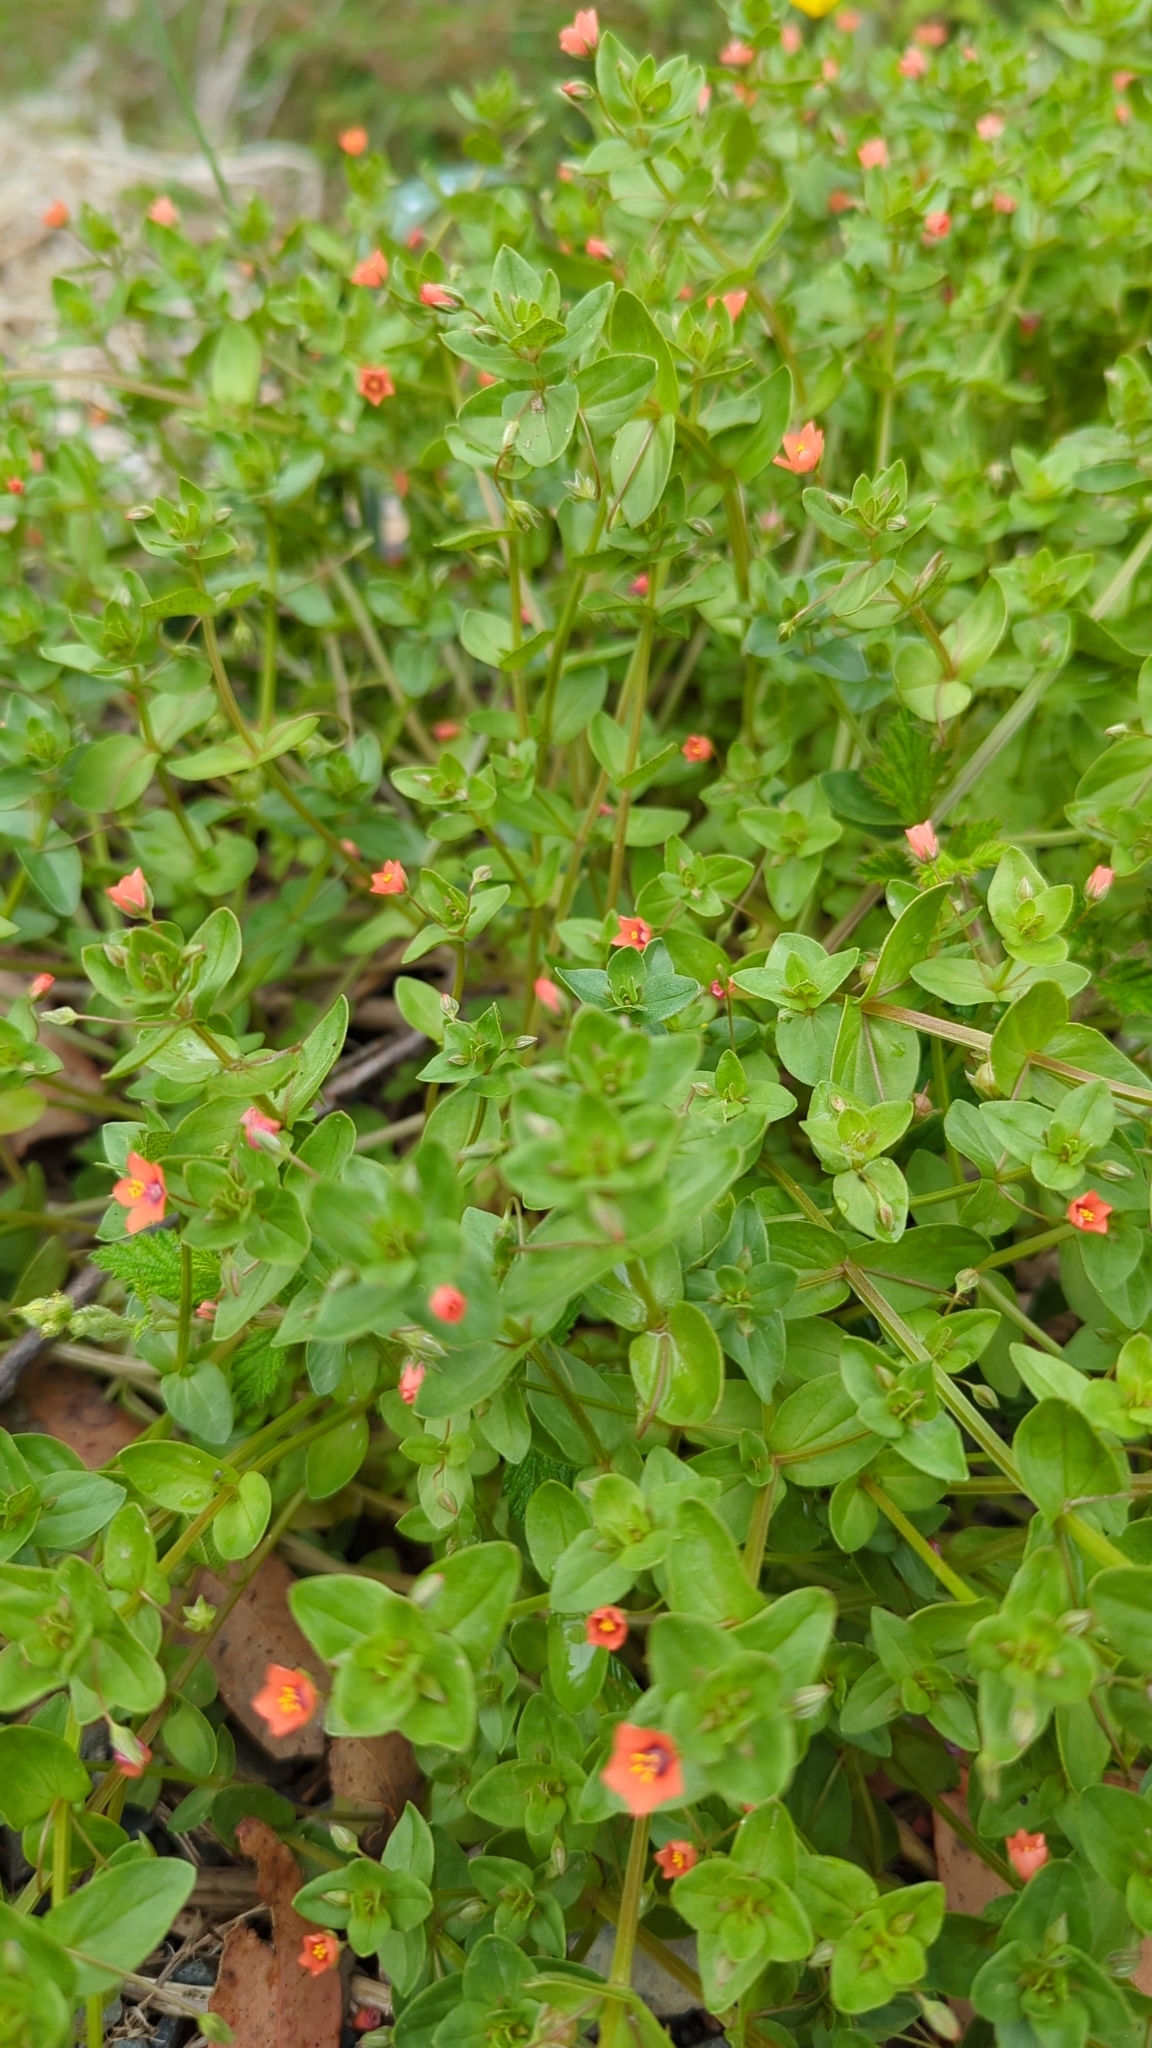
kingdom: Plantae
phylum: Tracheophyta
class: Magnoliopsida
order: Ericales
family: Primulaceae
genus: Lysimachia
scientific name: Lysimachia arvensis
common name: Scarlet pimpernel
